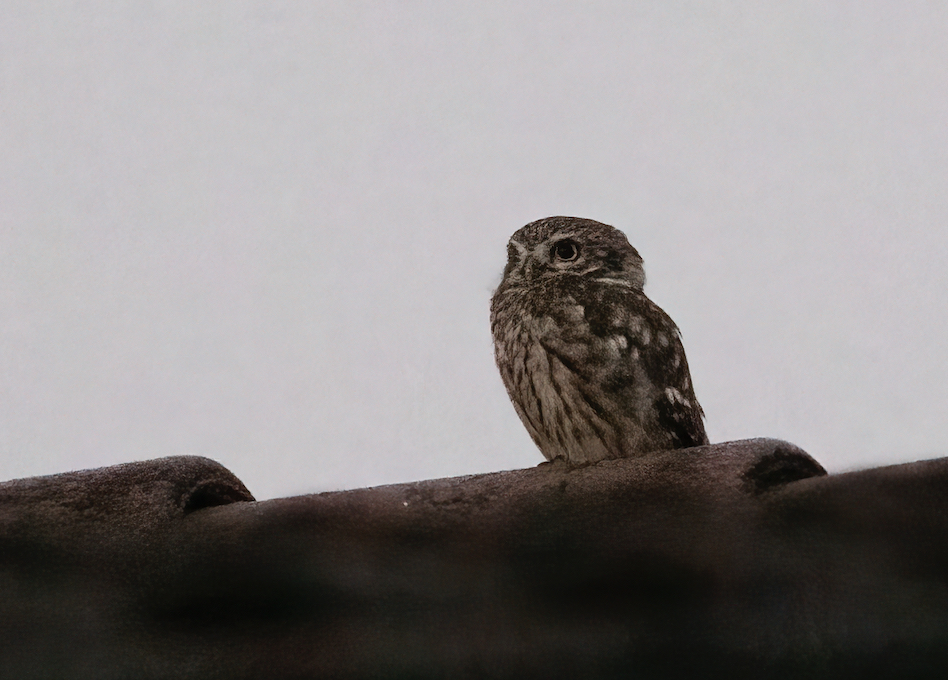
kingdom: Animalia
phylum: Chordata
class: Aves
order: Strigiformes
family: Strigidae
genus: Athene
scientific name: Athene noctua
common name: Little owl
